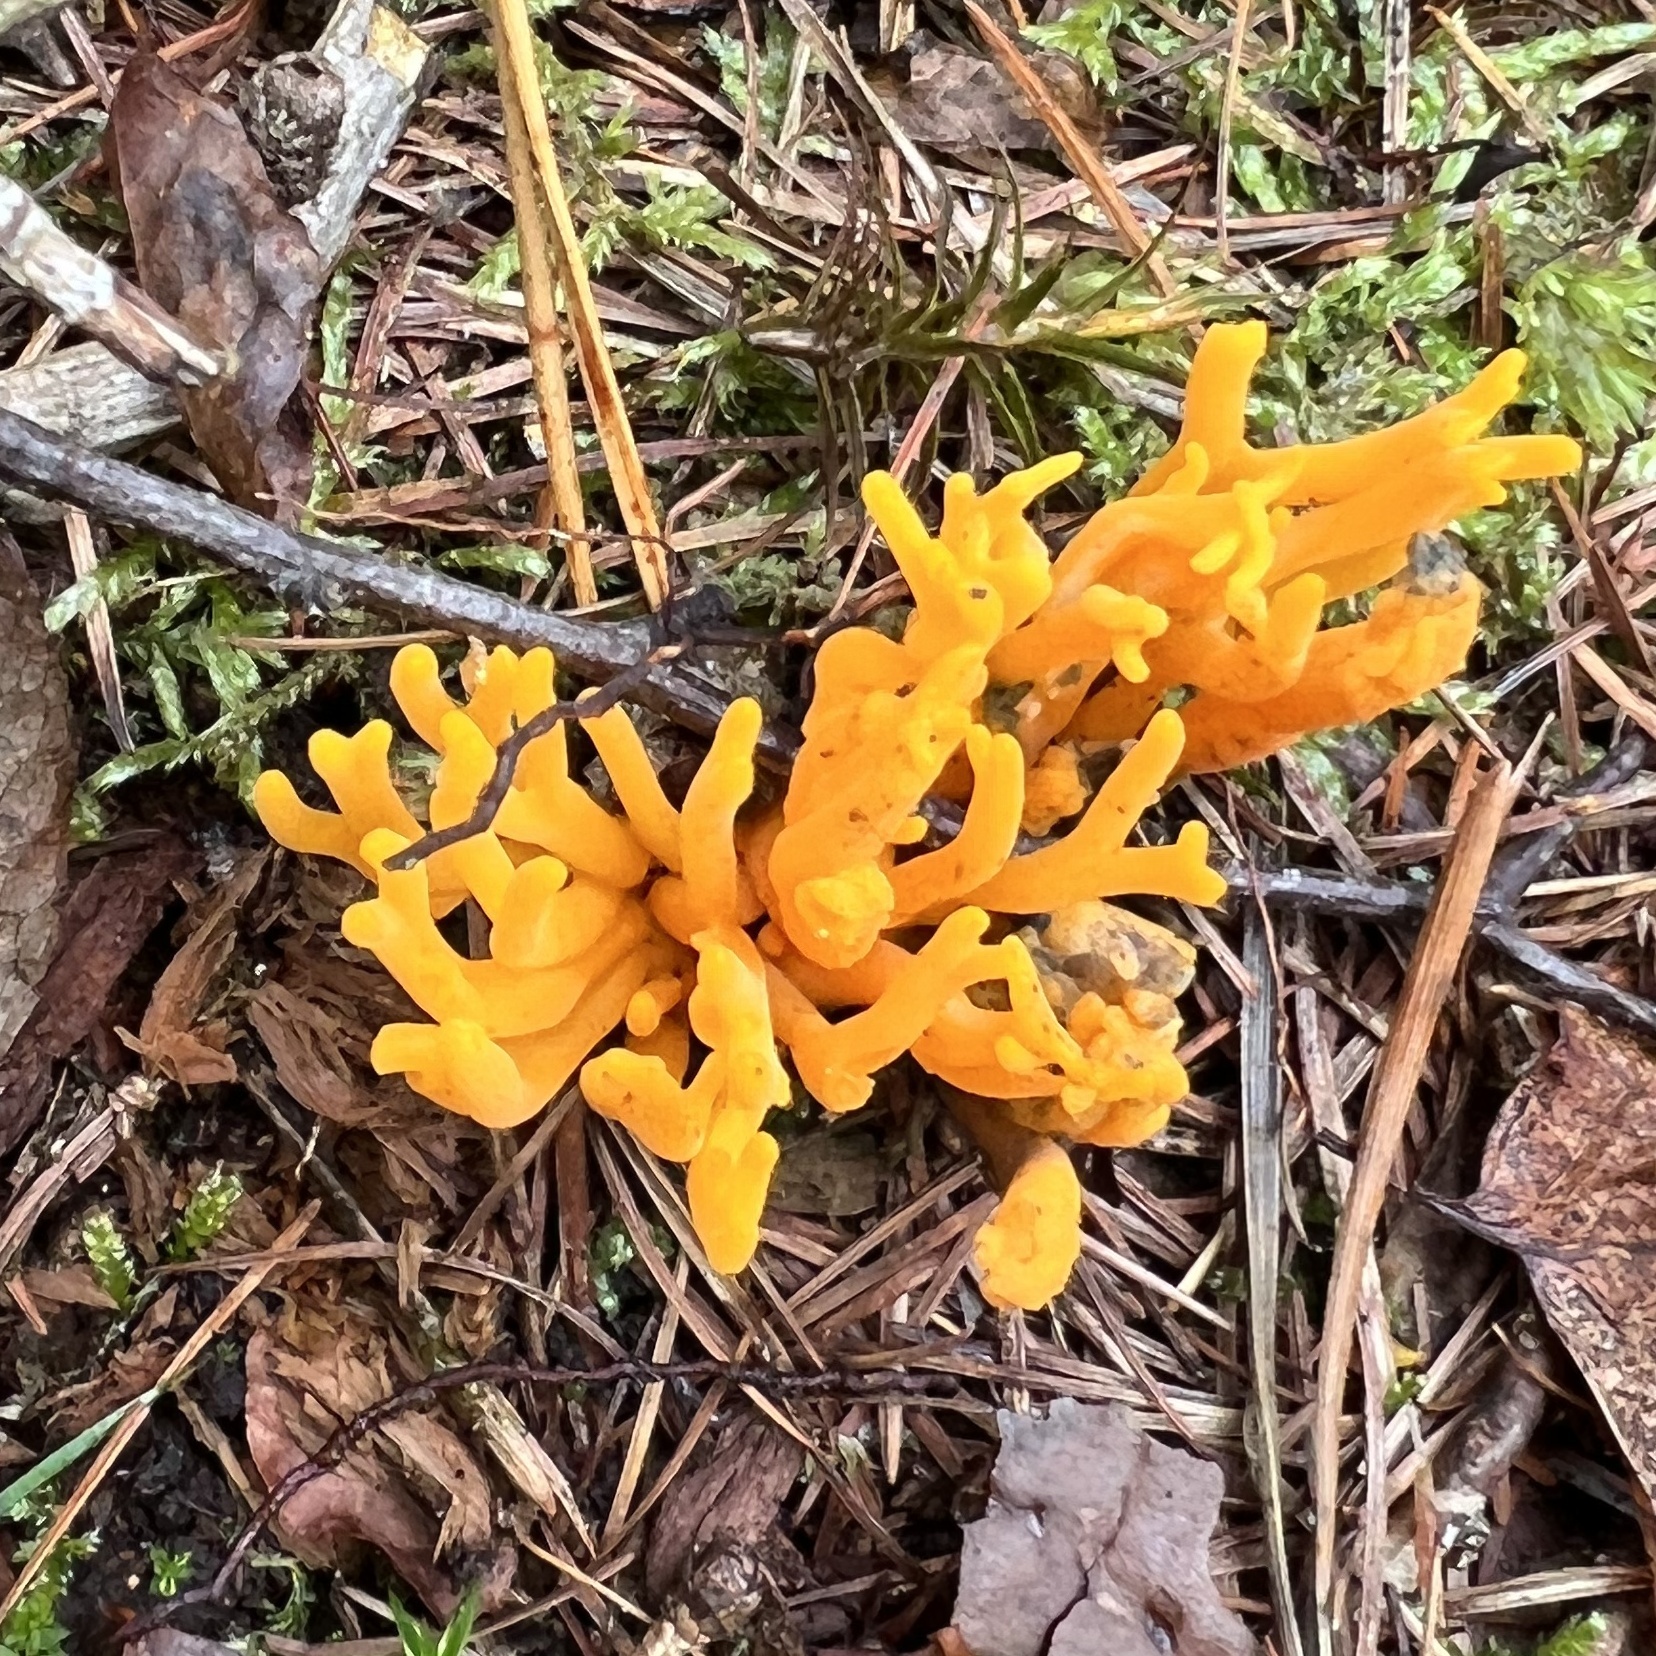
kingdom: Fungi
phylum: Basidiomycota
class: Dacrymycetes
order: Dacrymycetales
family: Dacrymycetaceae
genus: Calocera
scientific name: Calocera viscosa
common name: Yellow stagshorn
